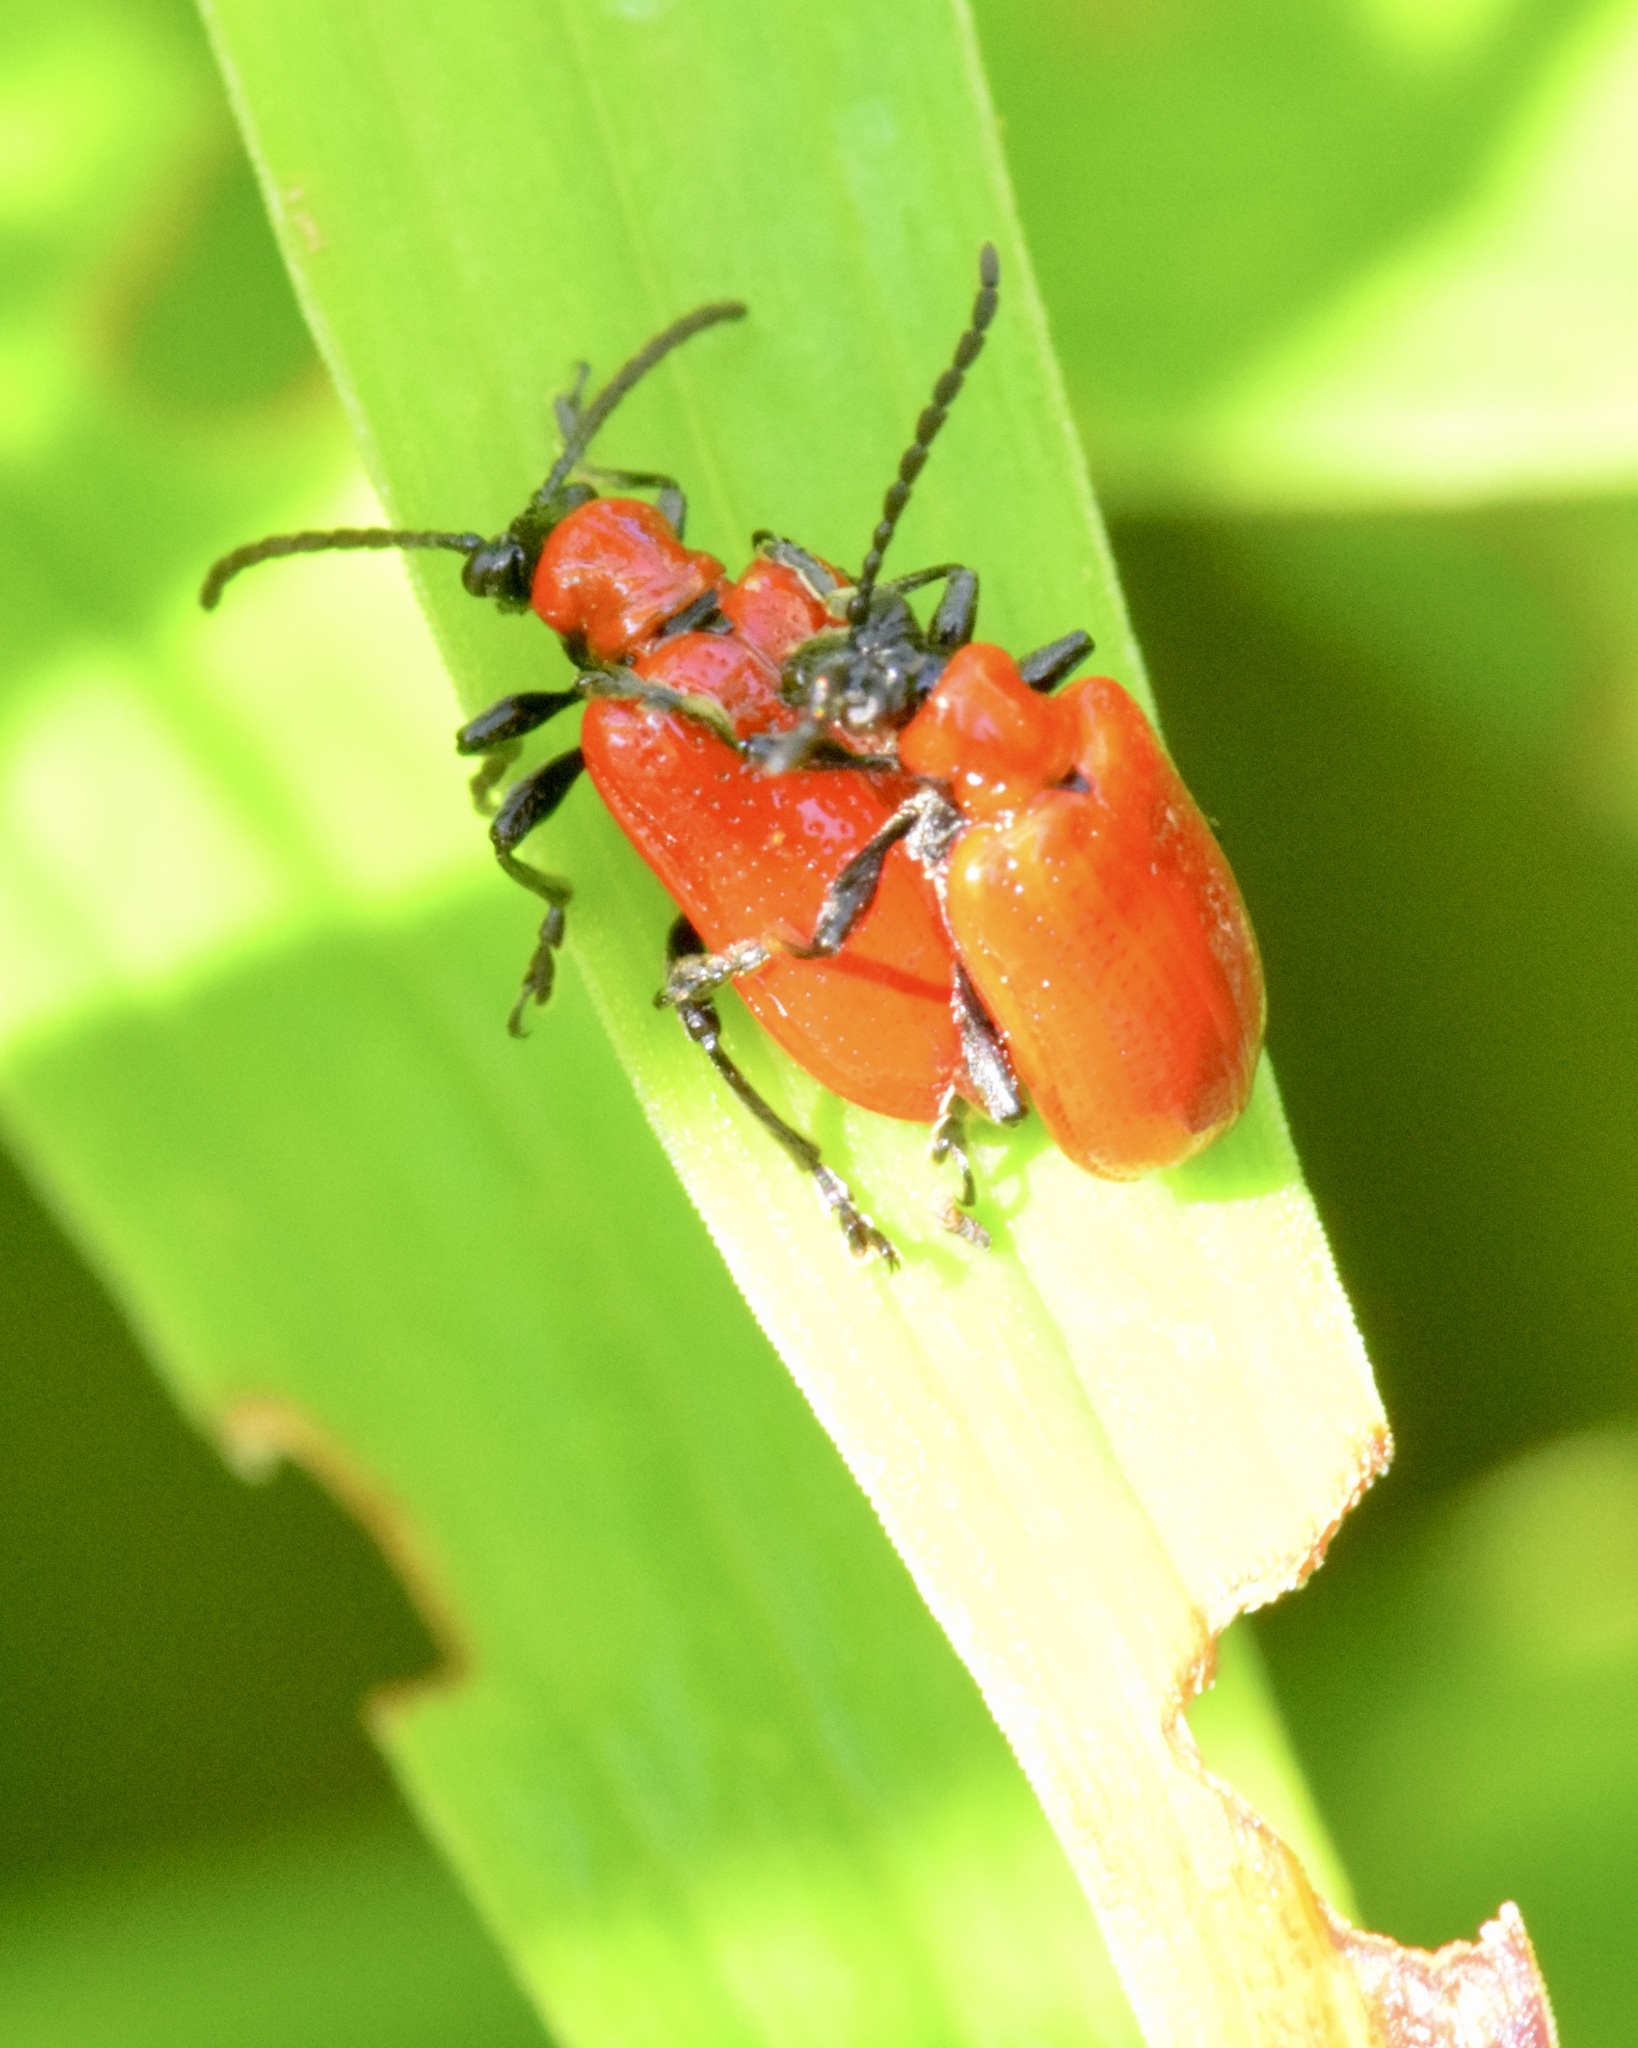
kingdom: Animalia
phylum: Arthropoda
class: Insecta
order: Coleoptera
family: Chrysomelidae
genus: Lilioceris
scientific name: Lilioceris lilii
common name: Lily beetle
